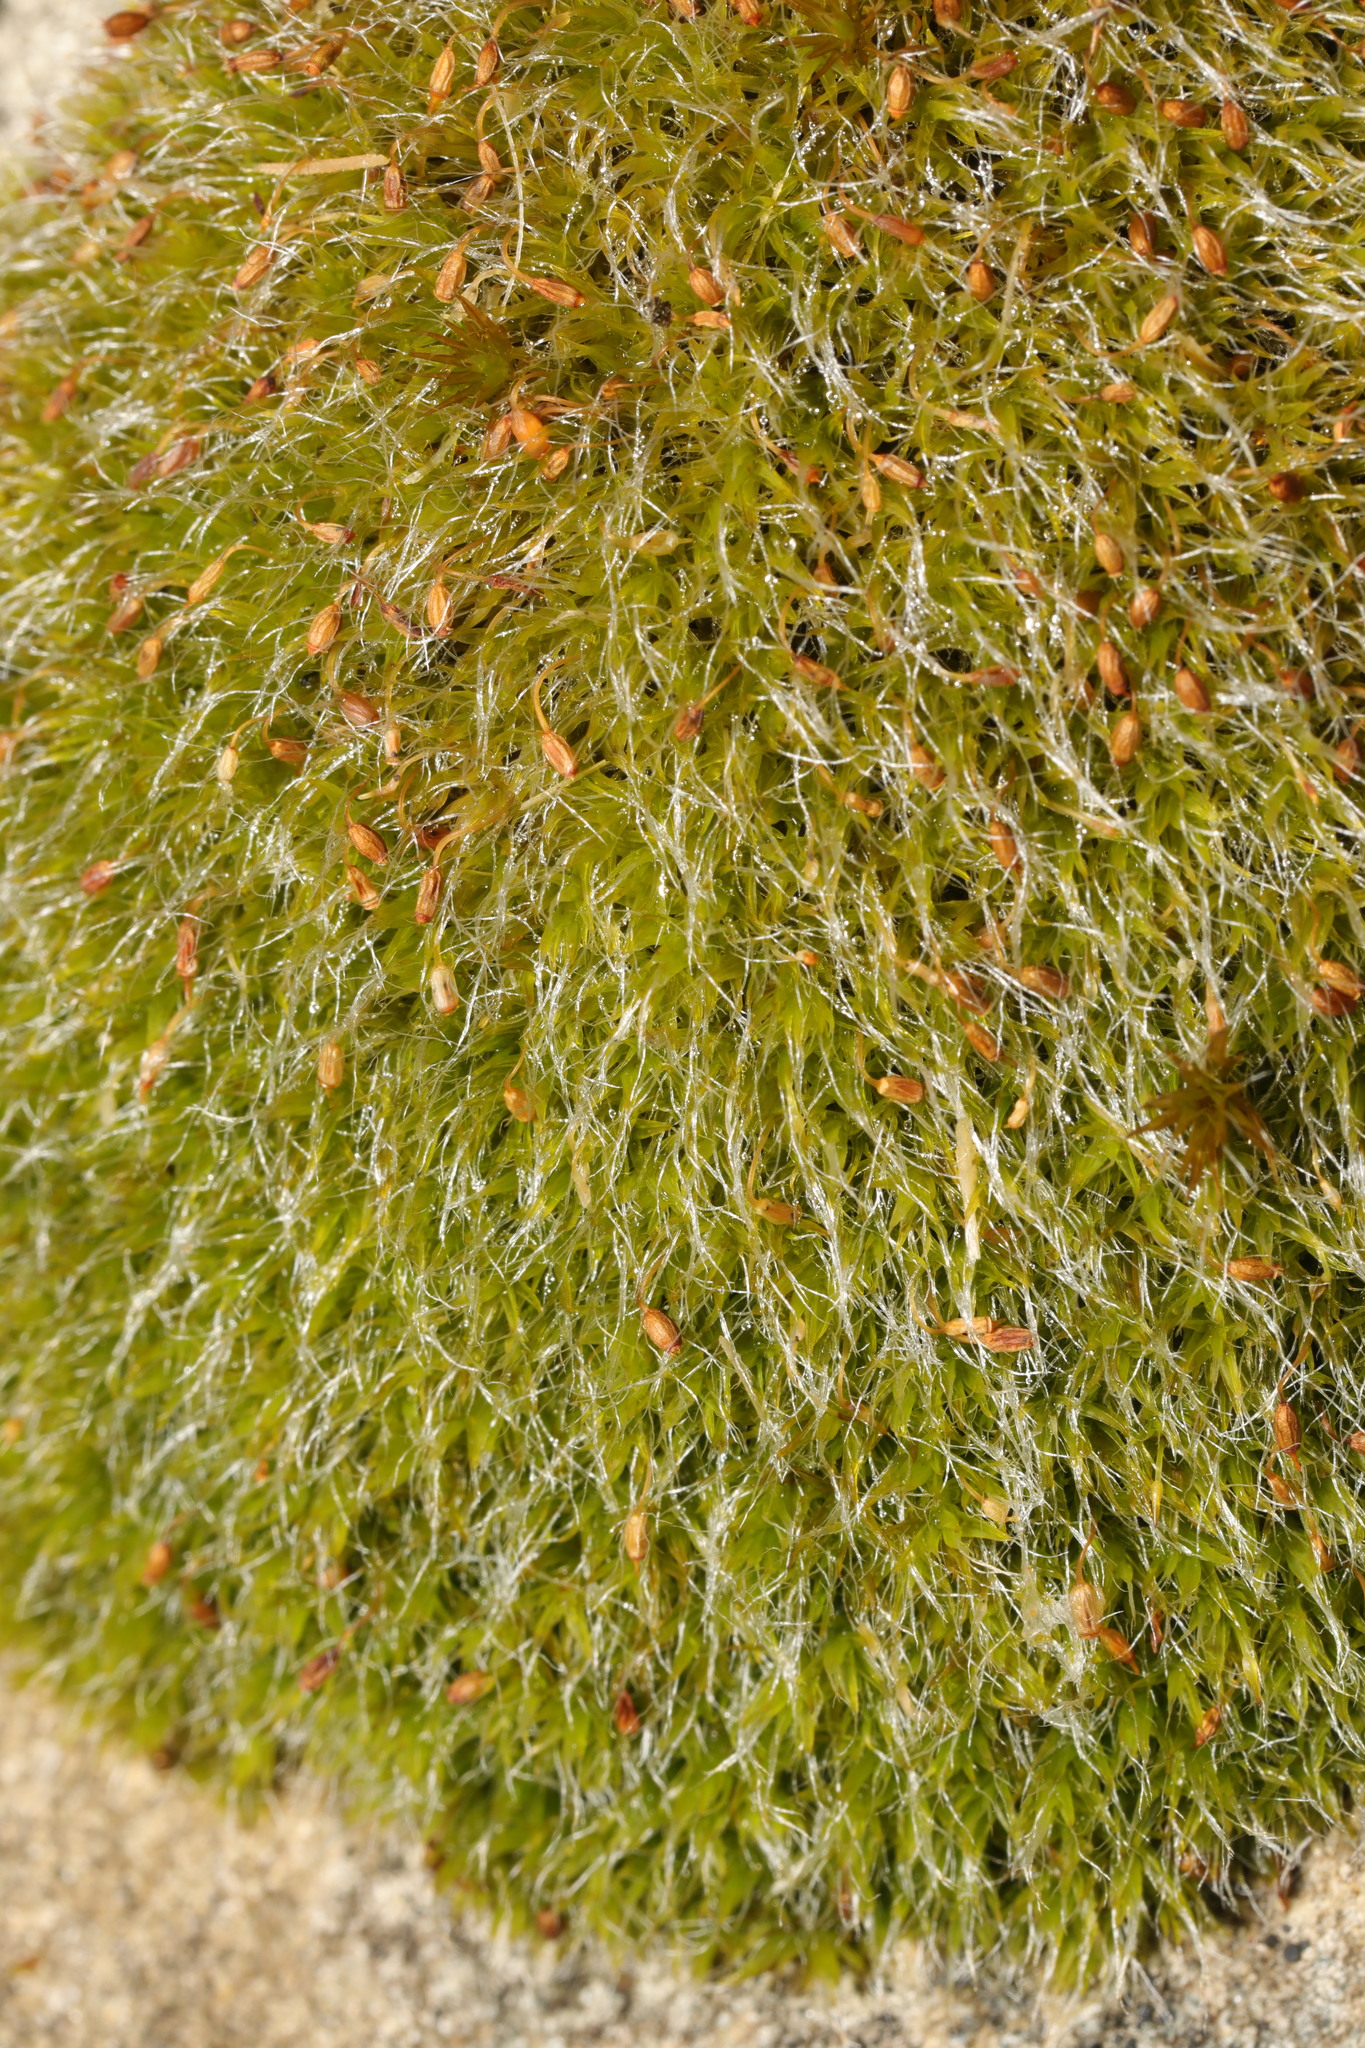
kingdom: Plantae
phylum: Bryophyta
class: Bryopsida
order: Grimmiales
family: Grimmiaceae
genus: Grimmia
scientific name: Grimmia pulvinata
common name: Grey-cushioned grimmia
